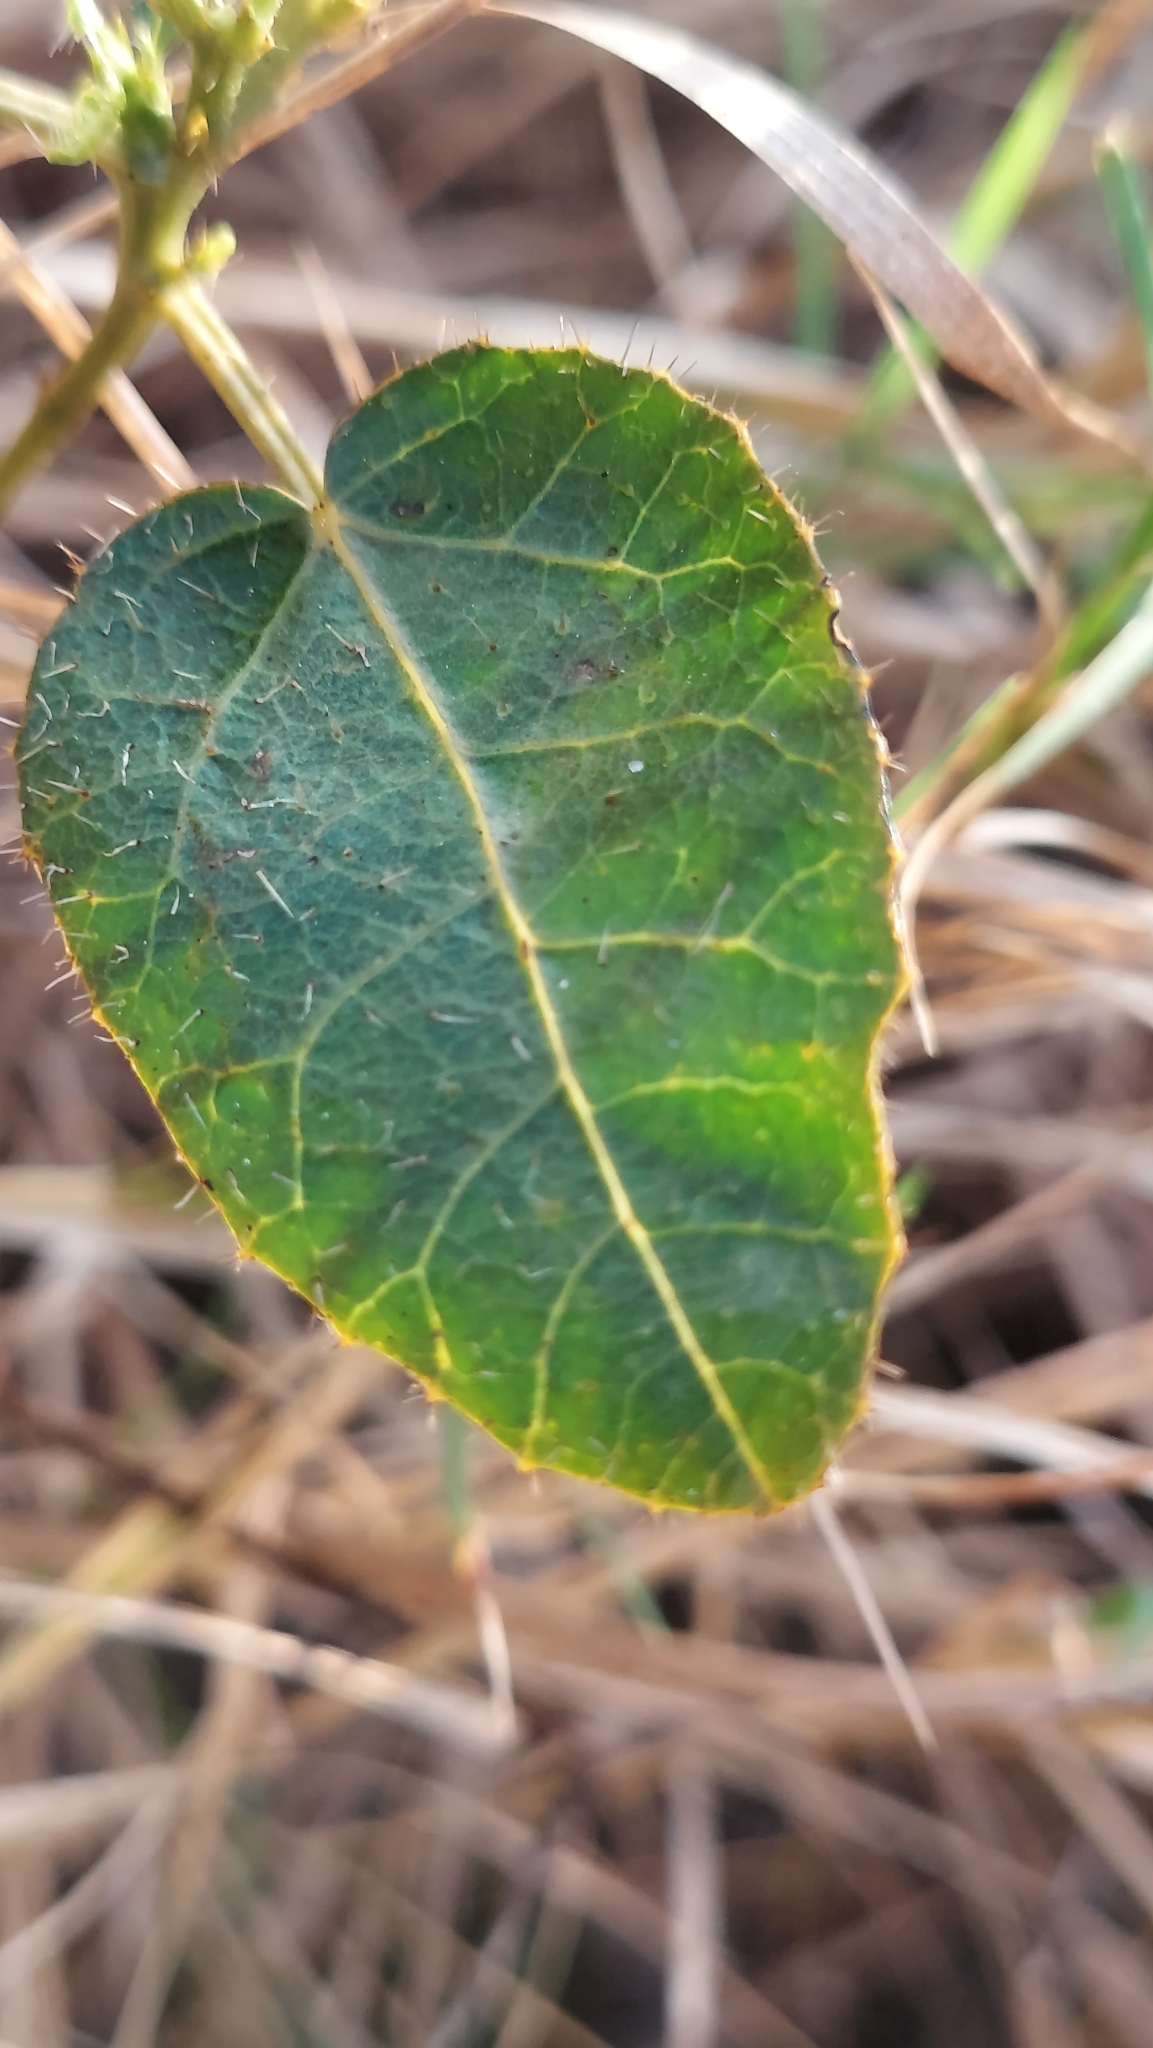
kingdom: Plantae
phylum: Tracheophyta
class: Magnoliopsida
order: Malpighiales
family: Euphorbiaceae
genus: Cnidoscolus
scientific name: Cnidoscolus stimulosus
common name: Bull-nettle
